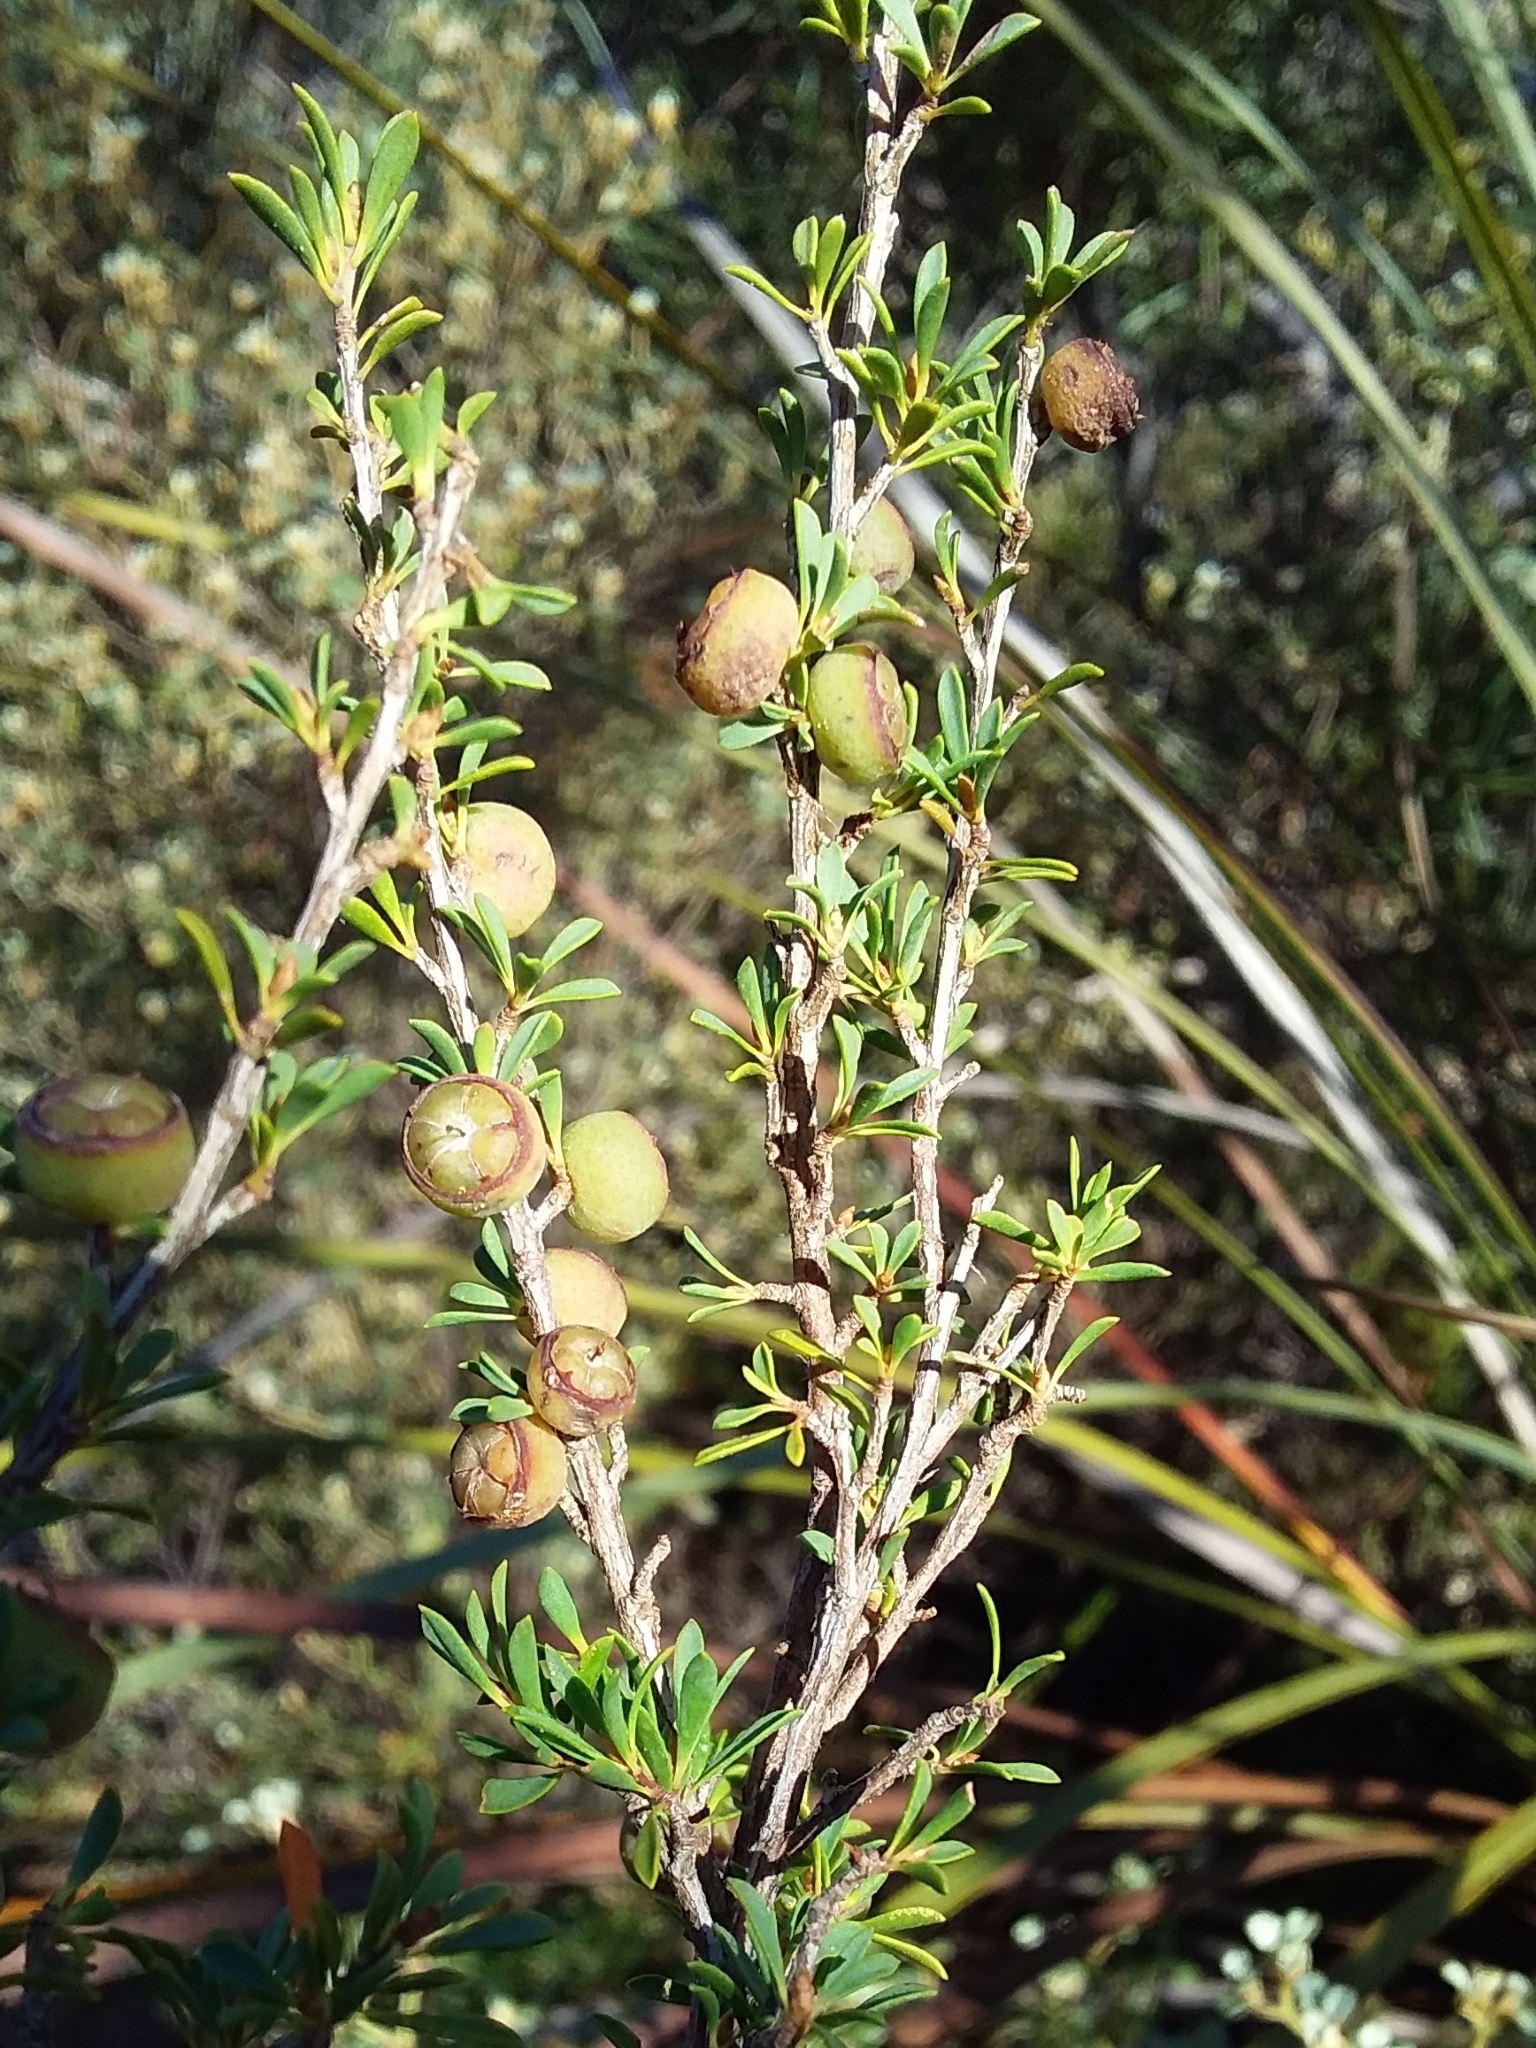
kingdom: Plantae
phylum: Tracheophyta
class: Magnoliopsida
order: Myrtales
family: Myrtaceae
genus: Leptospermum
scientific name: Leptospermum myrsinoides
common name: Heath teatree
